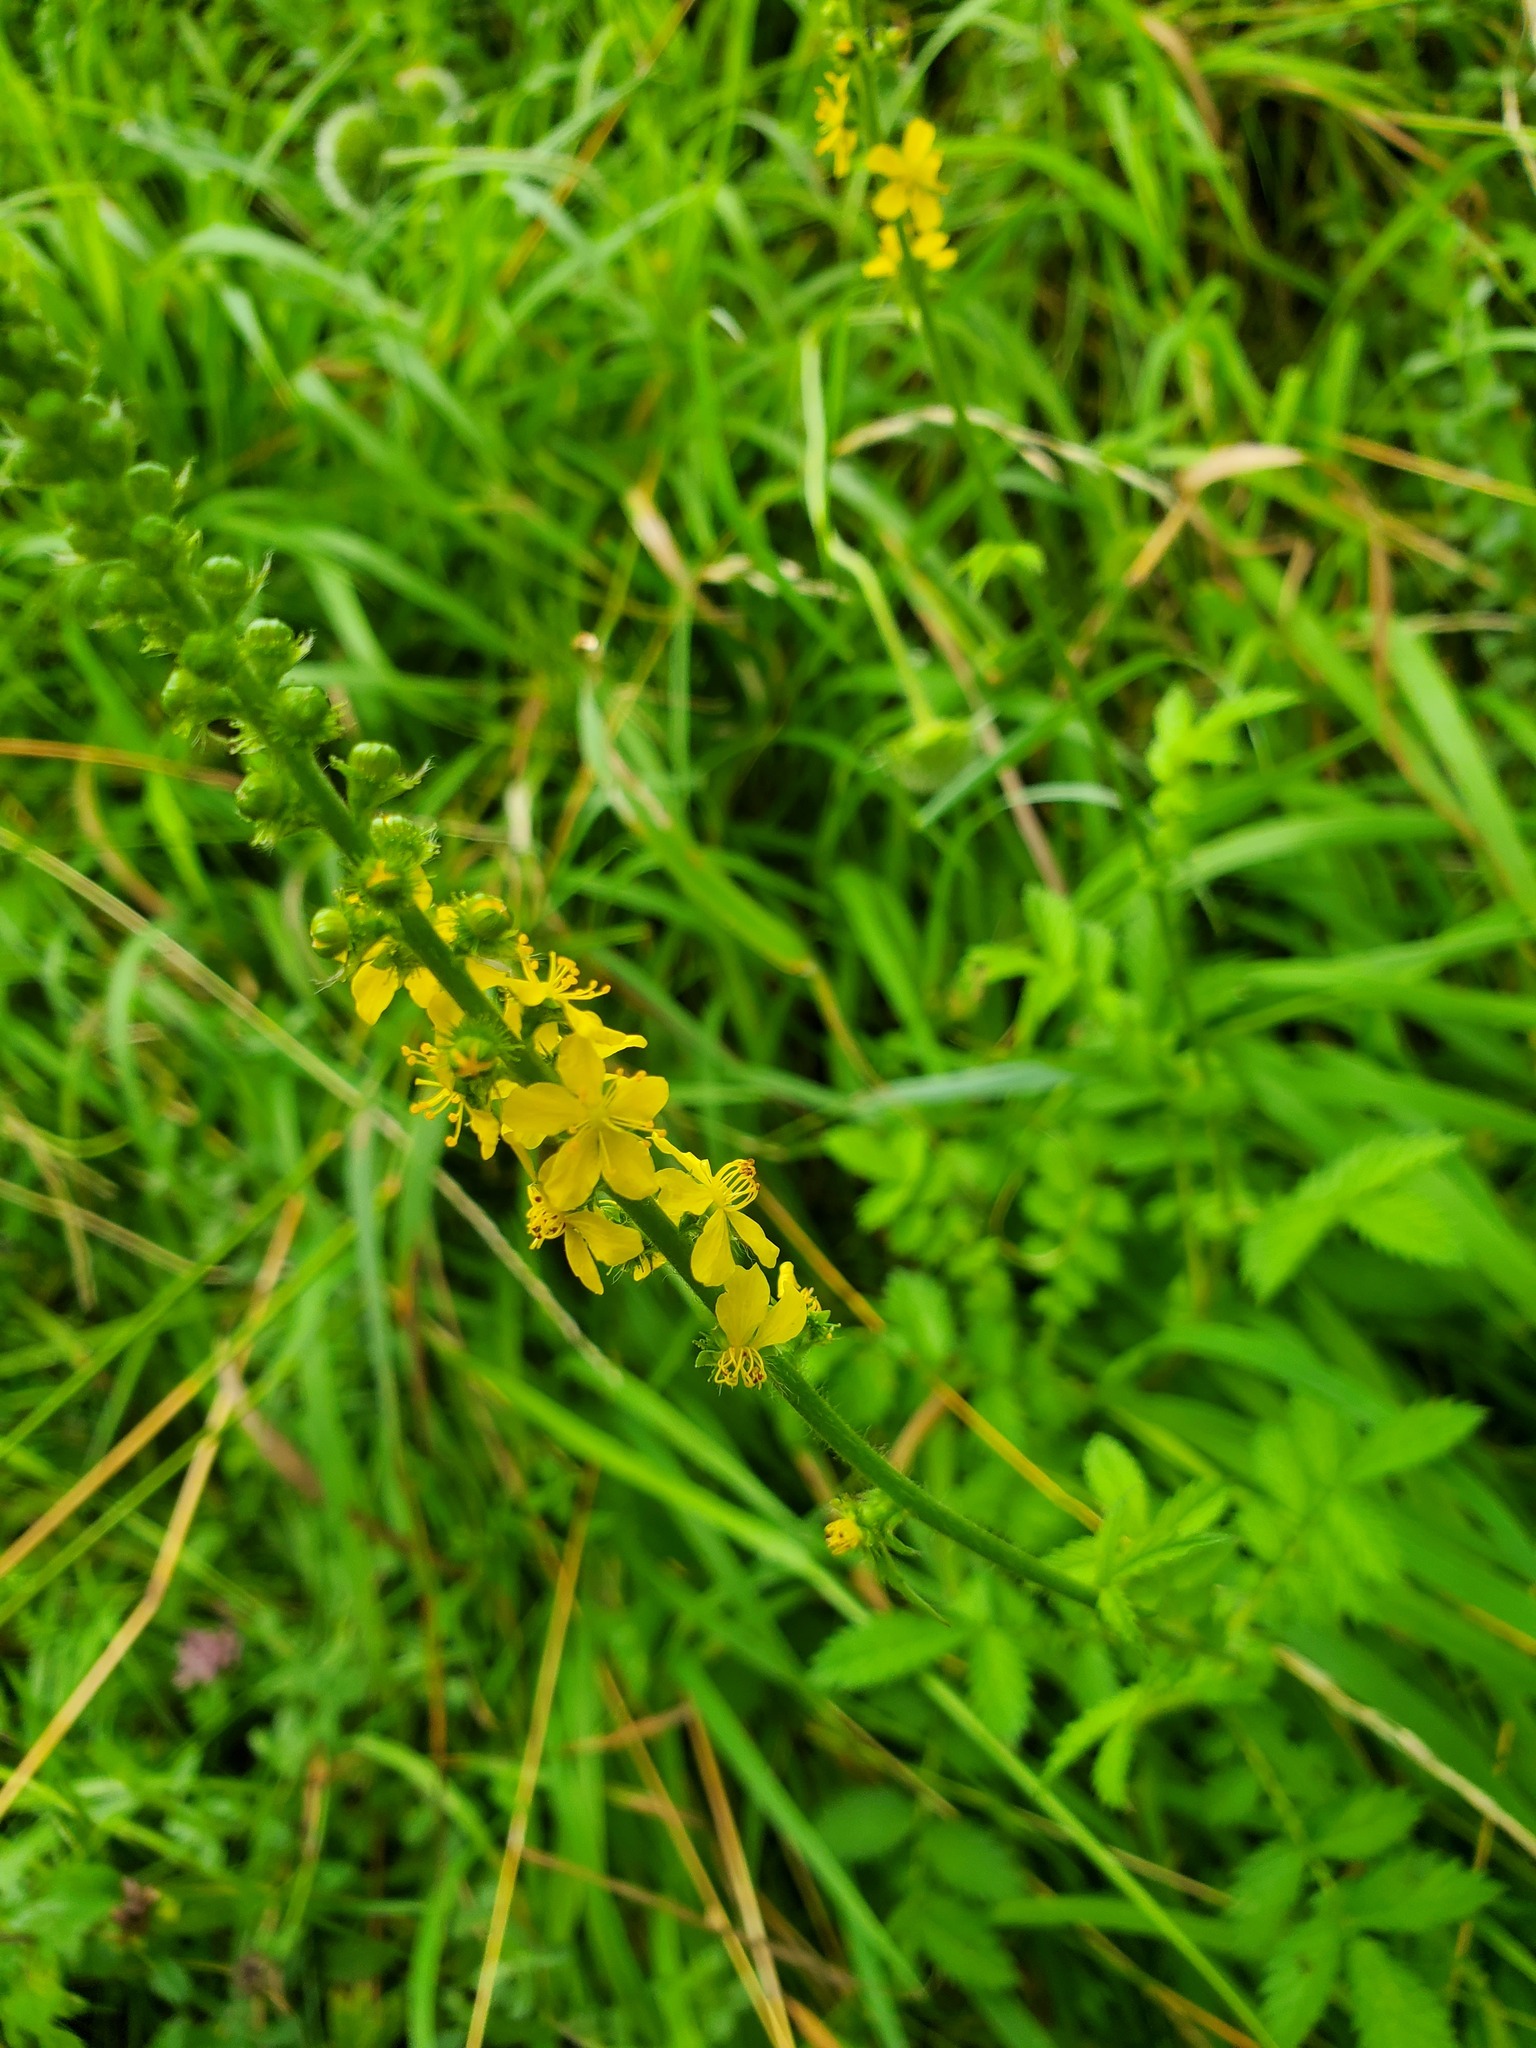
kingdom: Plantae
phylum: Tracheophyta
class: Magnoliopsida
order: Rosales
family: Rosaceae
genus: Agrimonia
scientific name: Agrimonia eupatoria
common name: Agrimony
